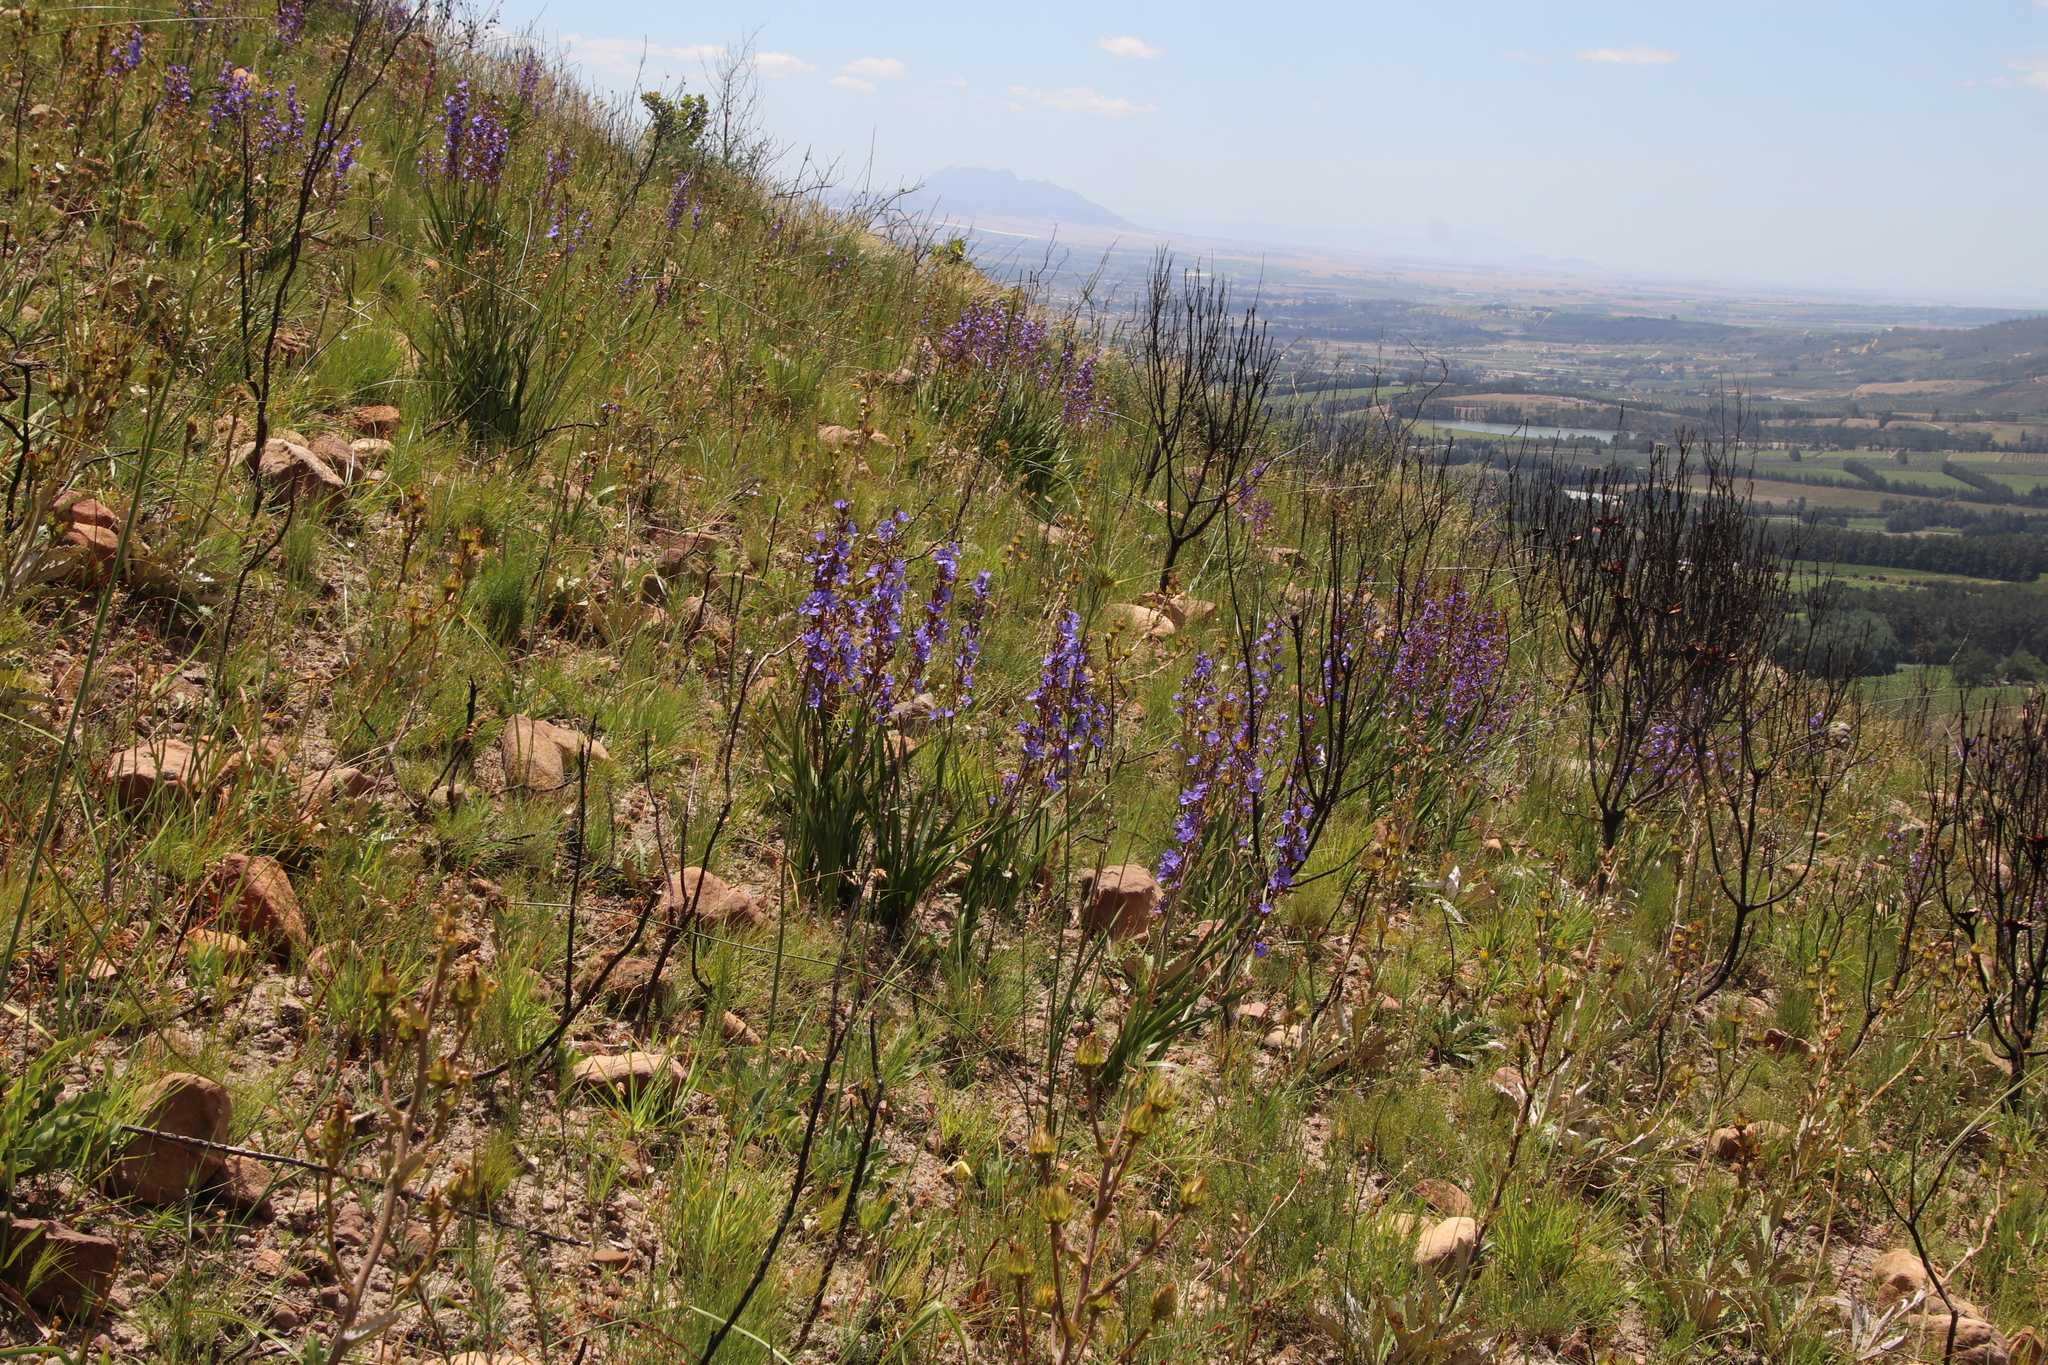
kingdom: Plantae
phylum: Tracheophyta
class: Liliopsida
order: Asparagales
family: Iridaceae
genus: Aristea
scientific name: Aristea bakeri
